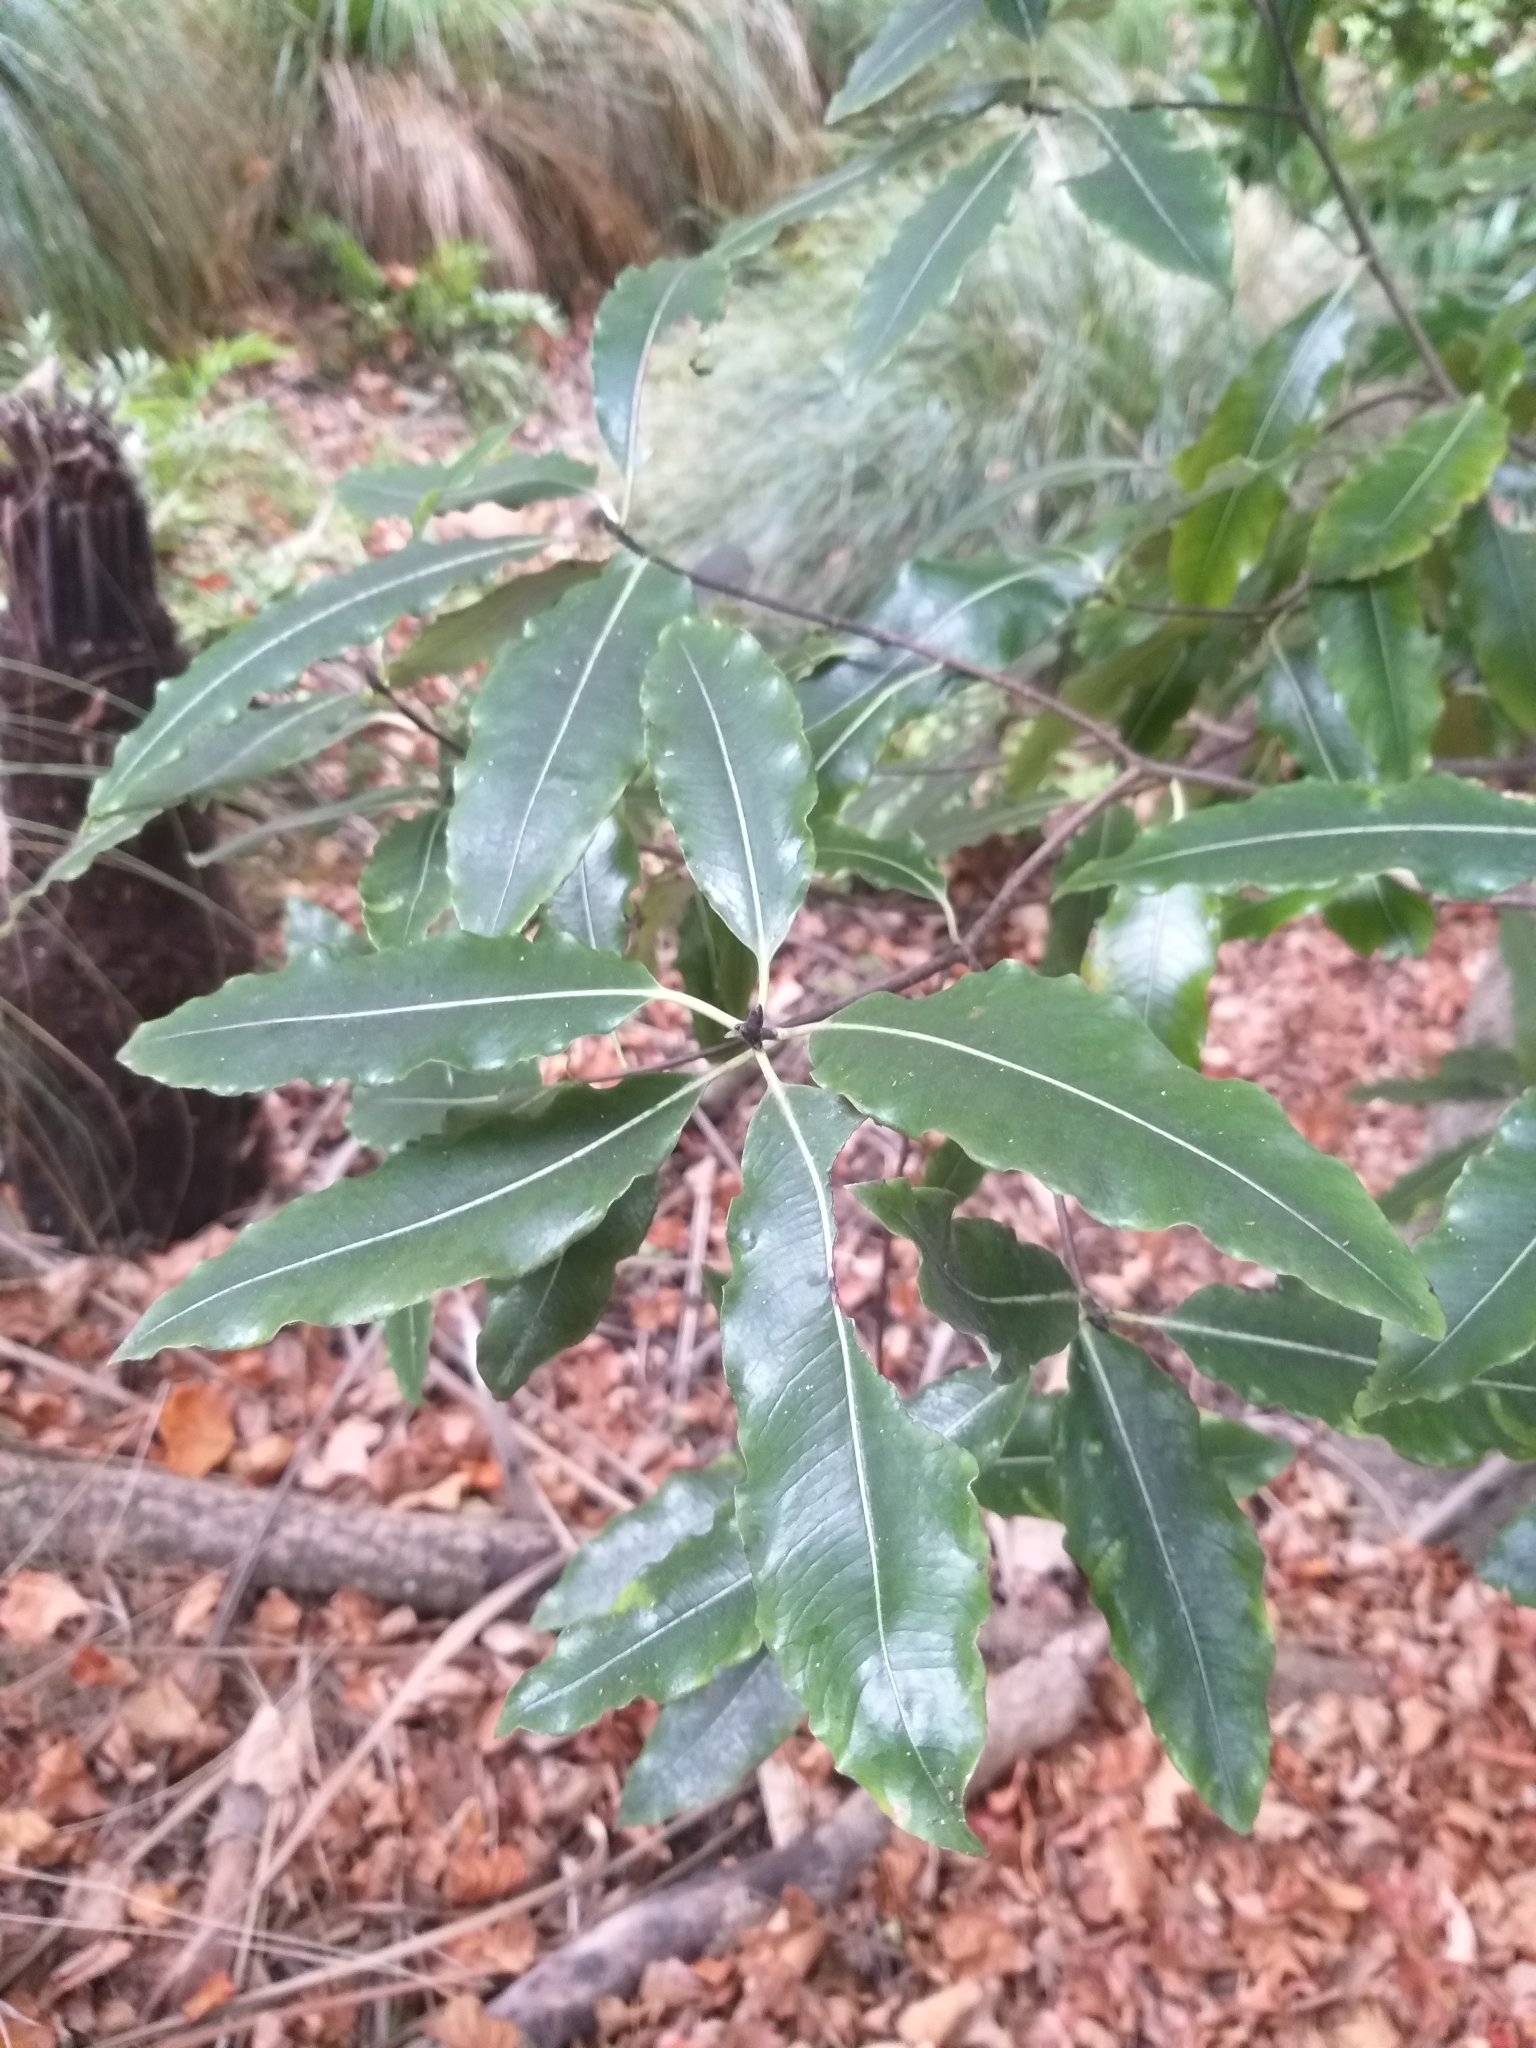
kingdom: Plantae
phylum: Tracheophyta
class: Magnoliopsida
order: Apiales
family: Pittosporaceae
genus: Pittosporum
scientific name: Pittosporum eugenioides
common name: Lemonwood
